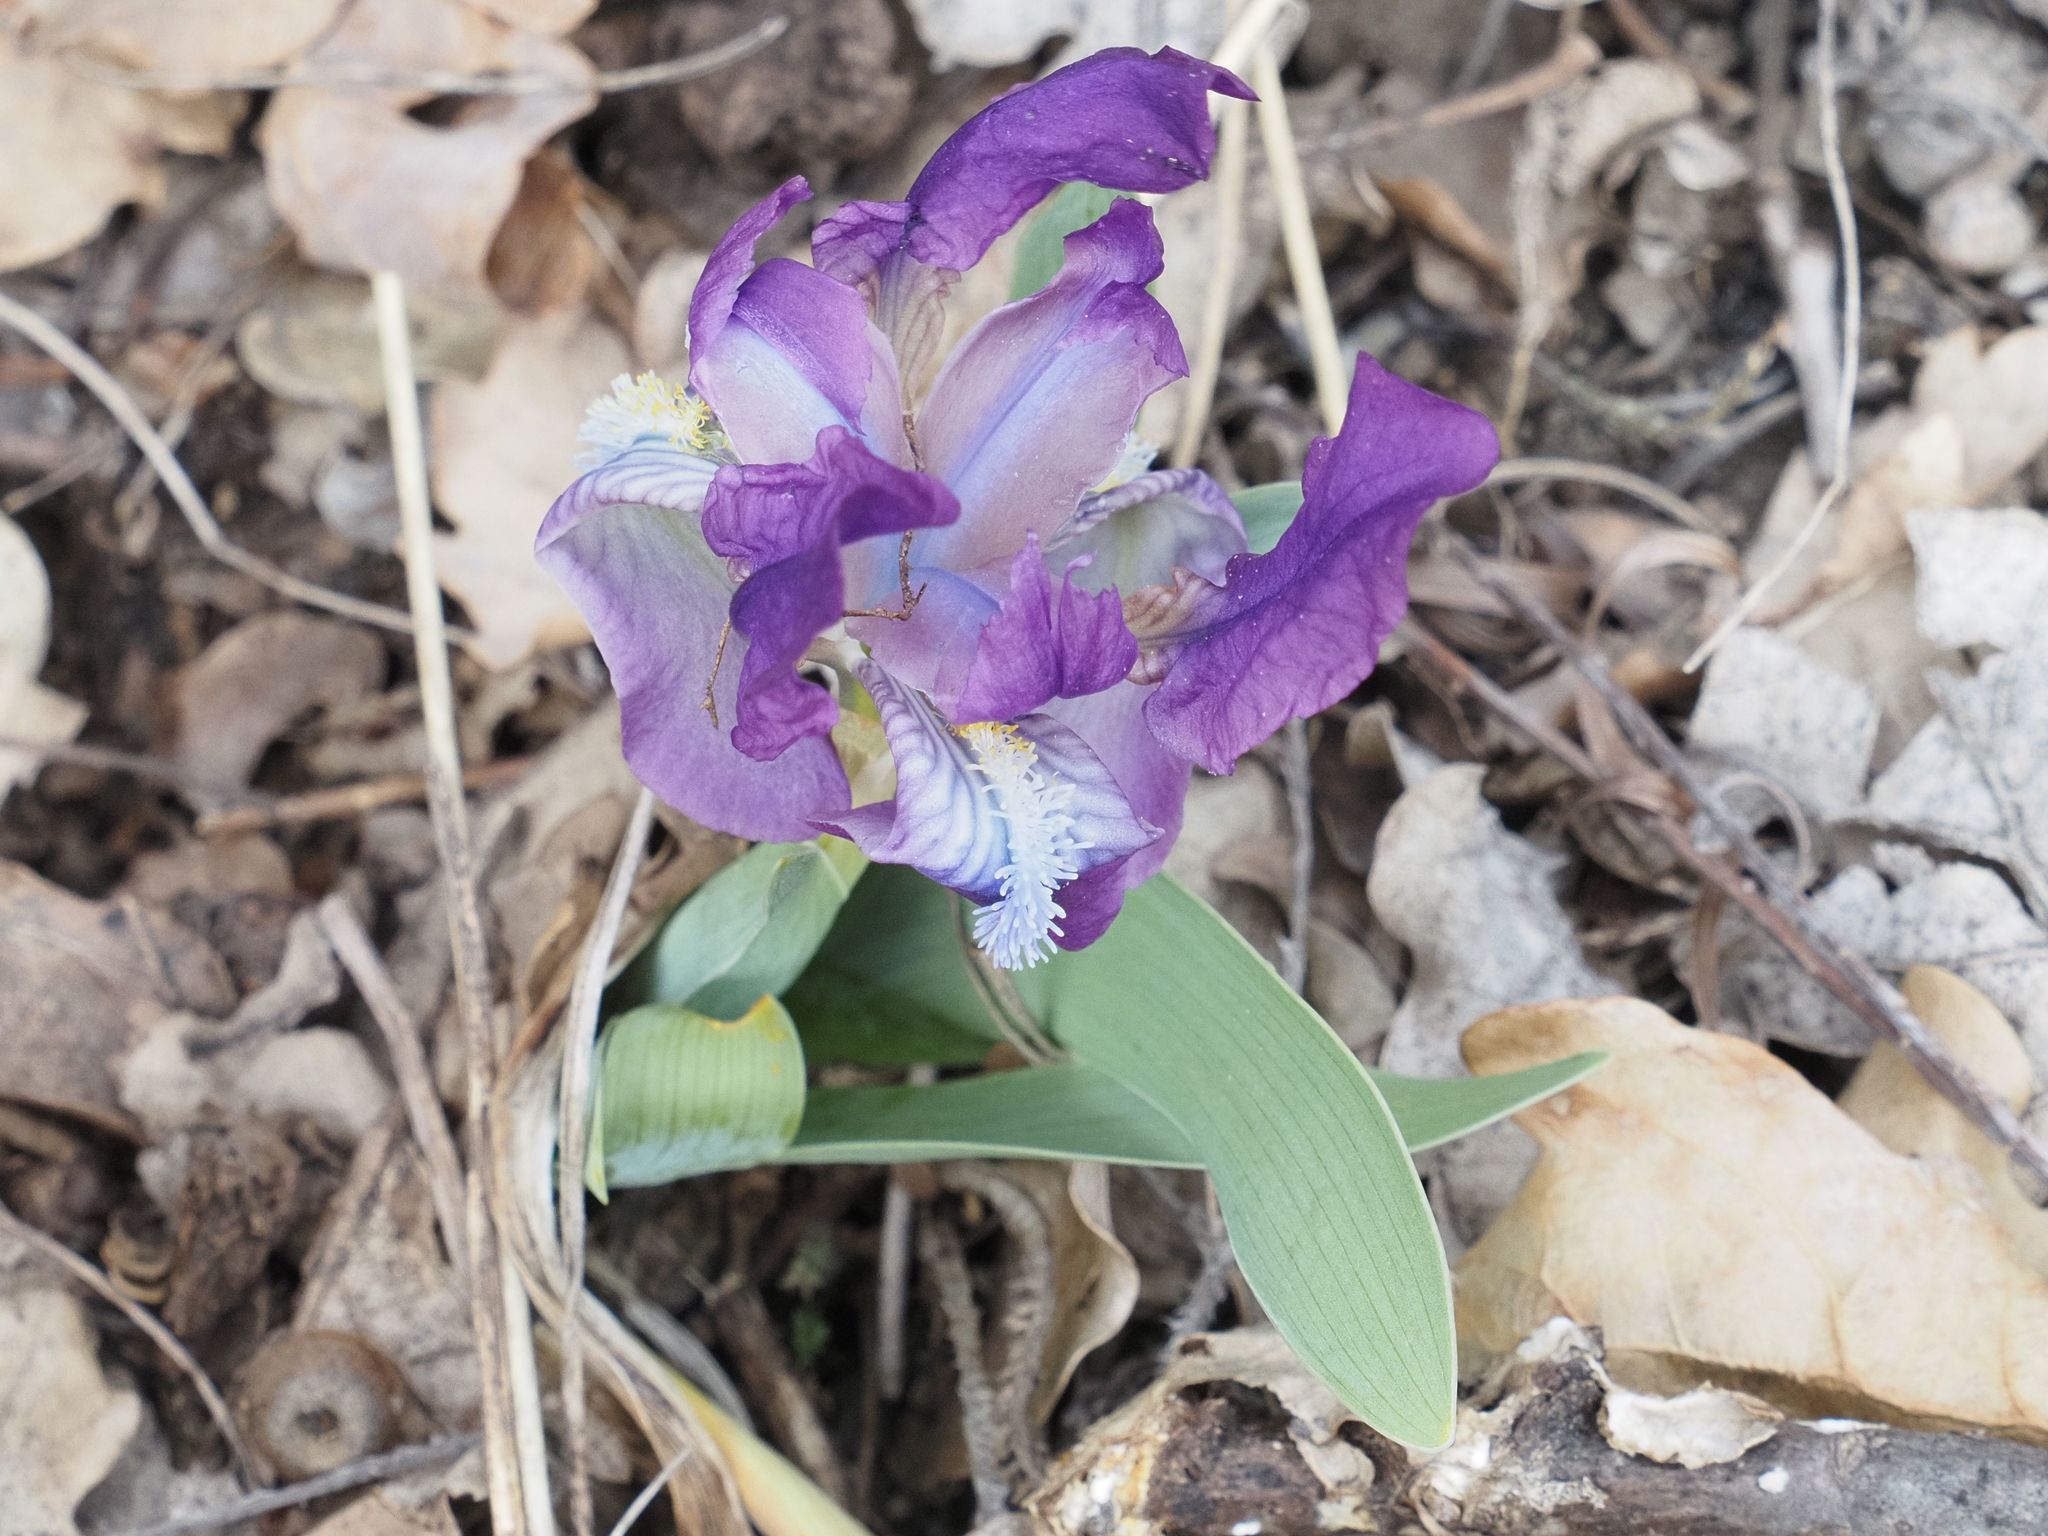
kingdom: Plantae
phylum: Tracheophyta
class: Liliopsida
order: Asparagales
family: Iridaceae
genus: Iris
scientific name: Iris pumila
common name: Dwarf iris
